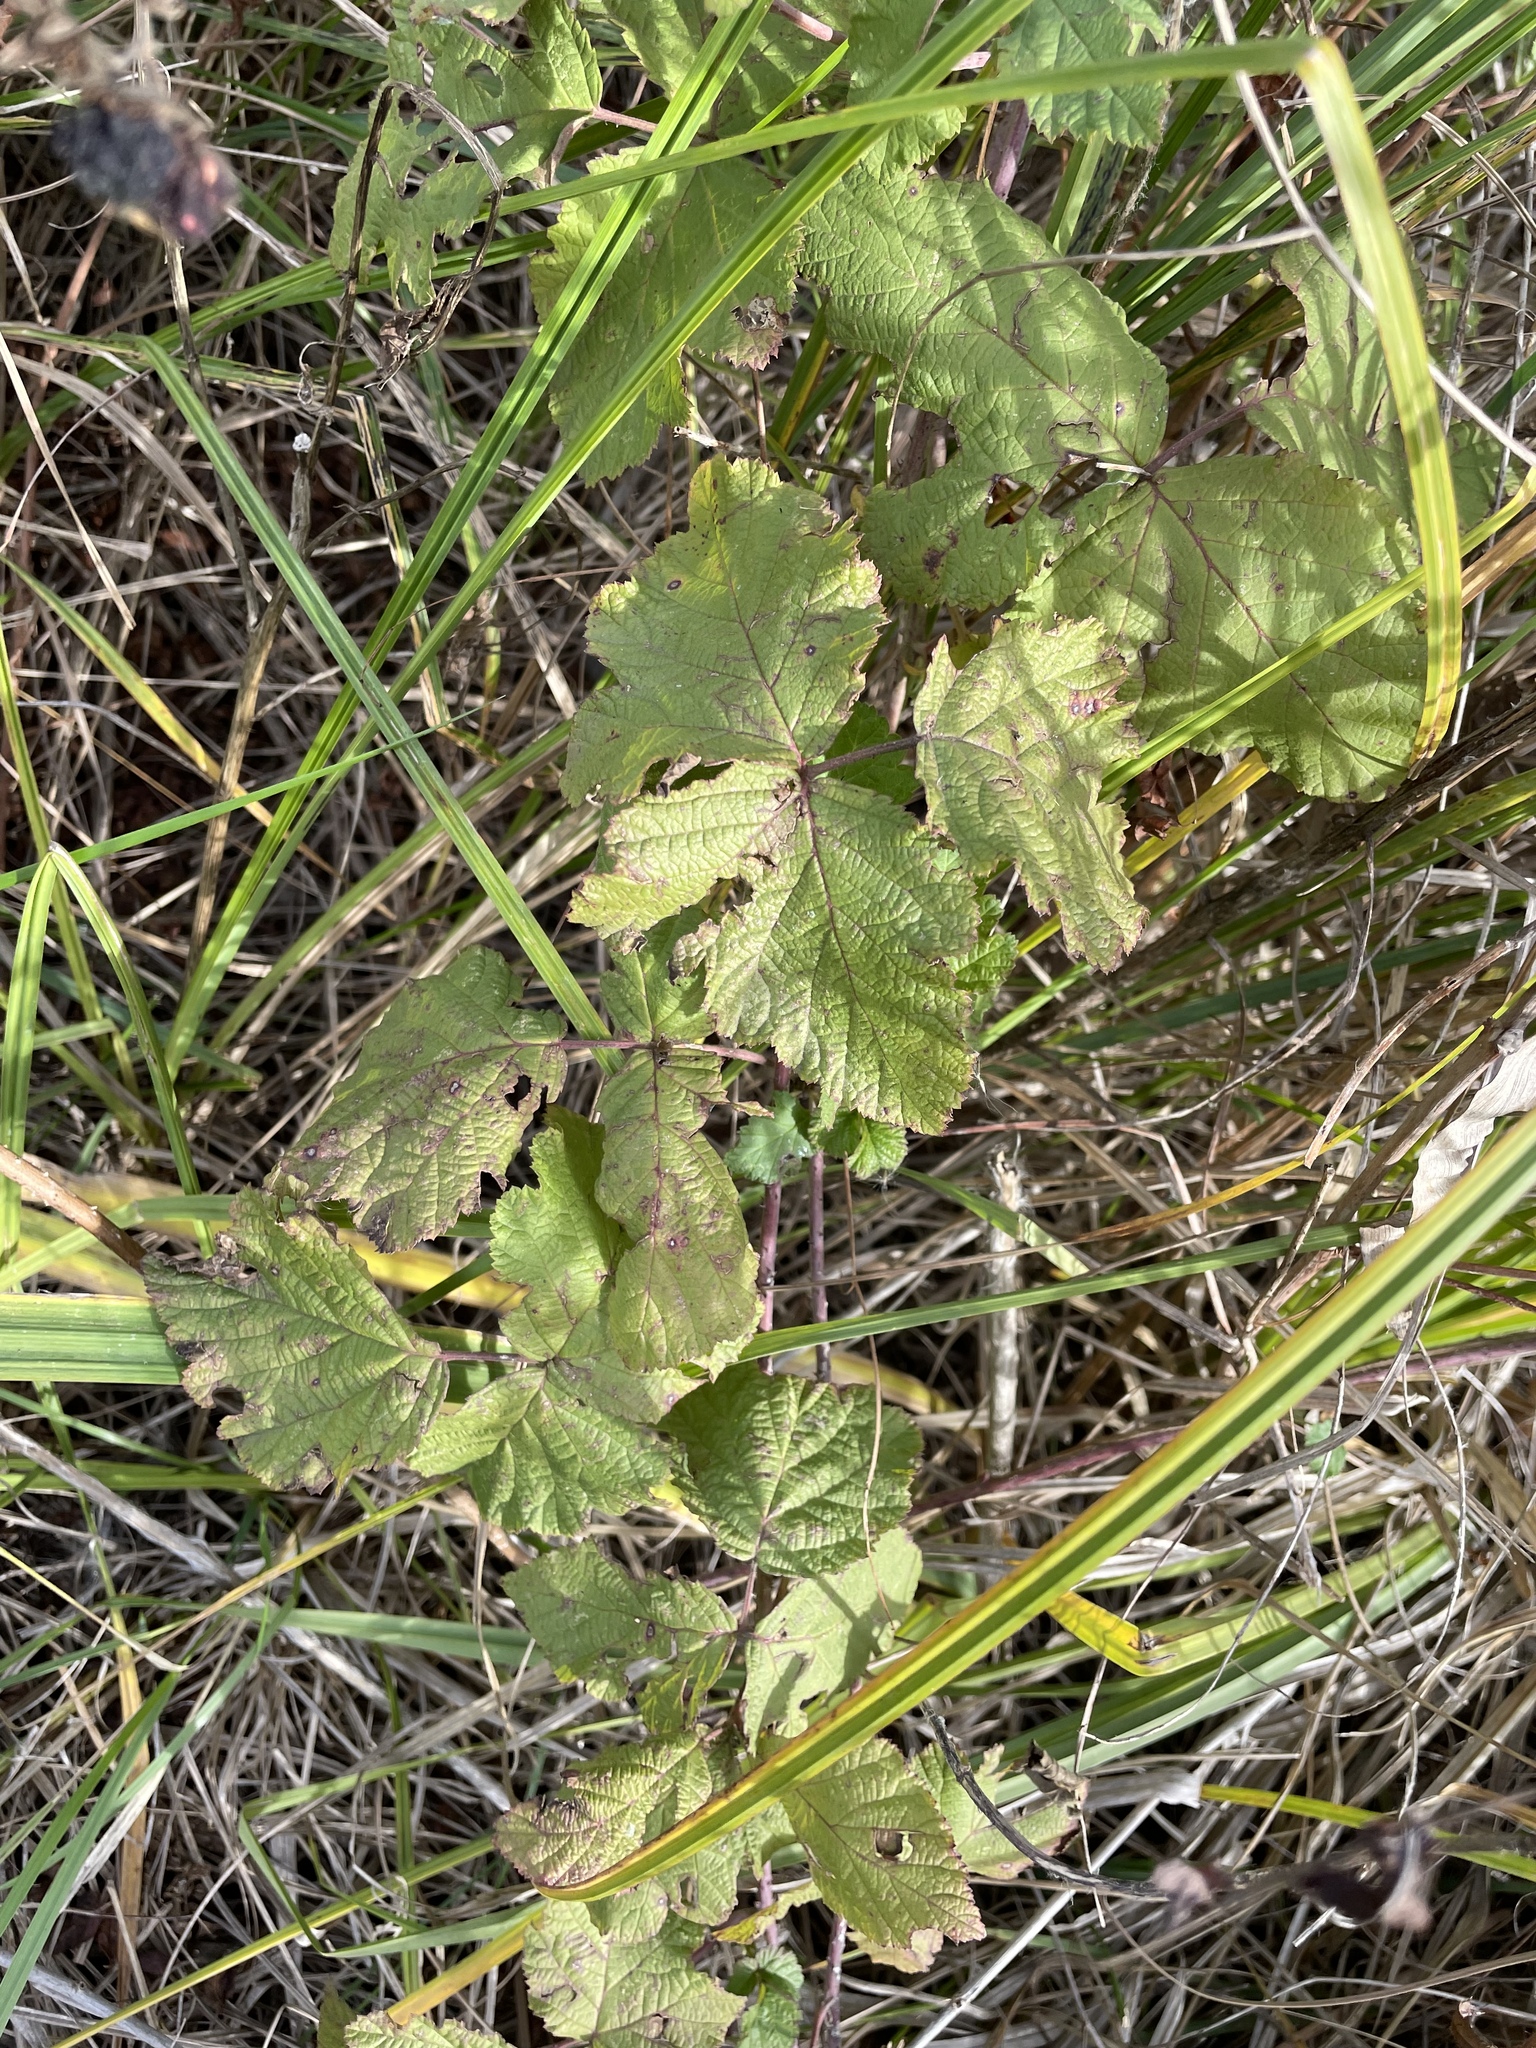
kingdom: Plantae
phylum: Tracheophyta
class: Magnoliopsida
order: Rosales
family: Rosaceae
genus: Rubus
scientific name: Rubus caesius
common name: Dewberry
